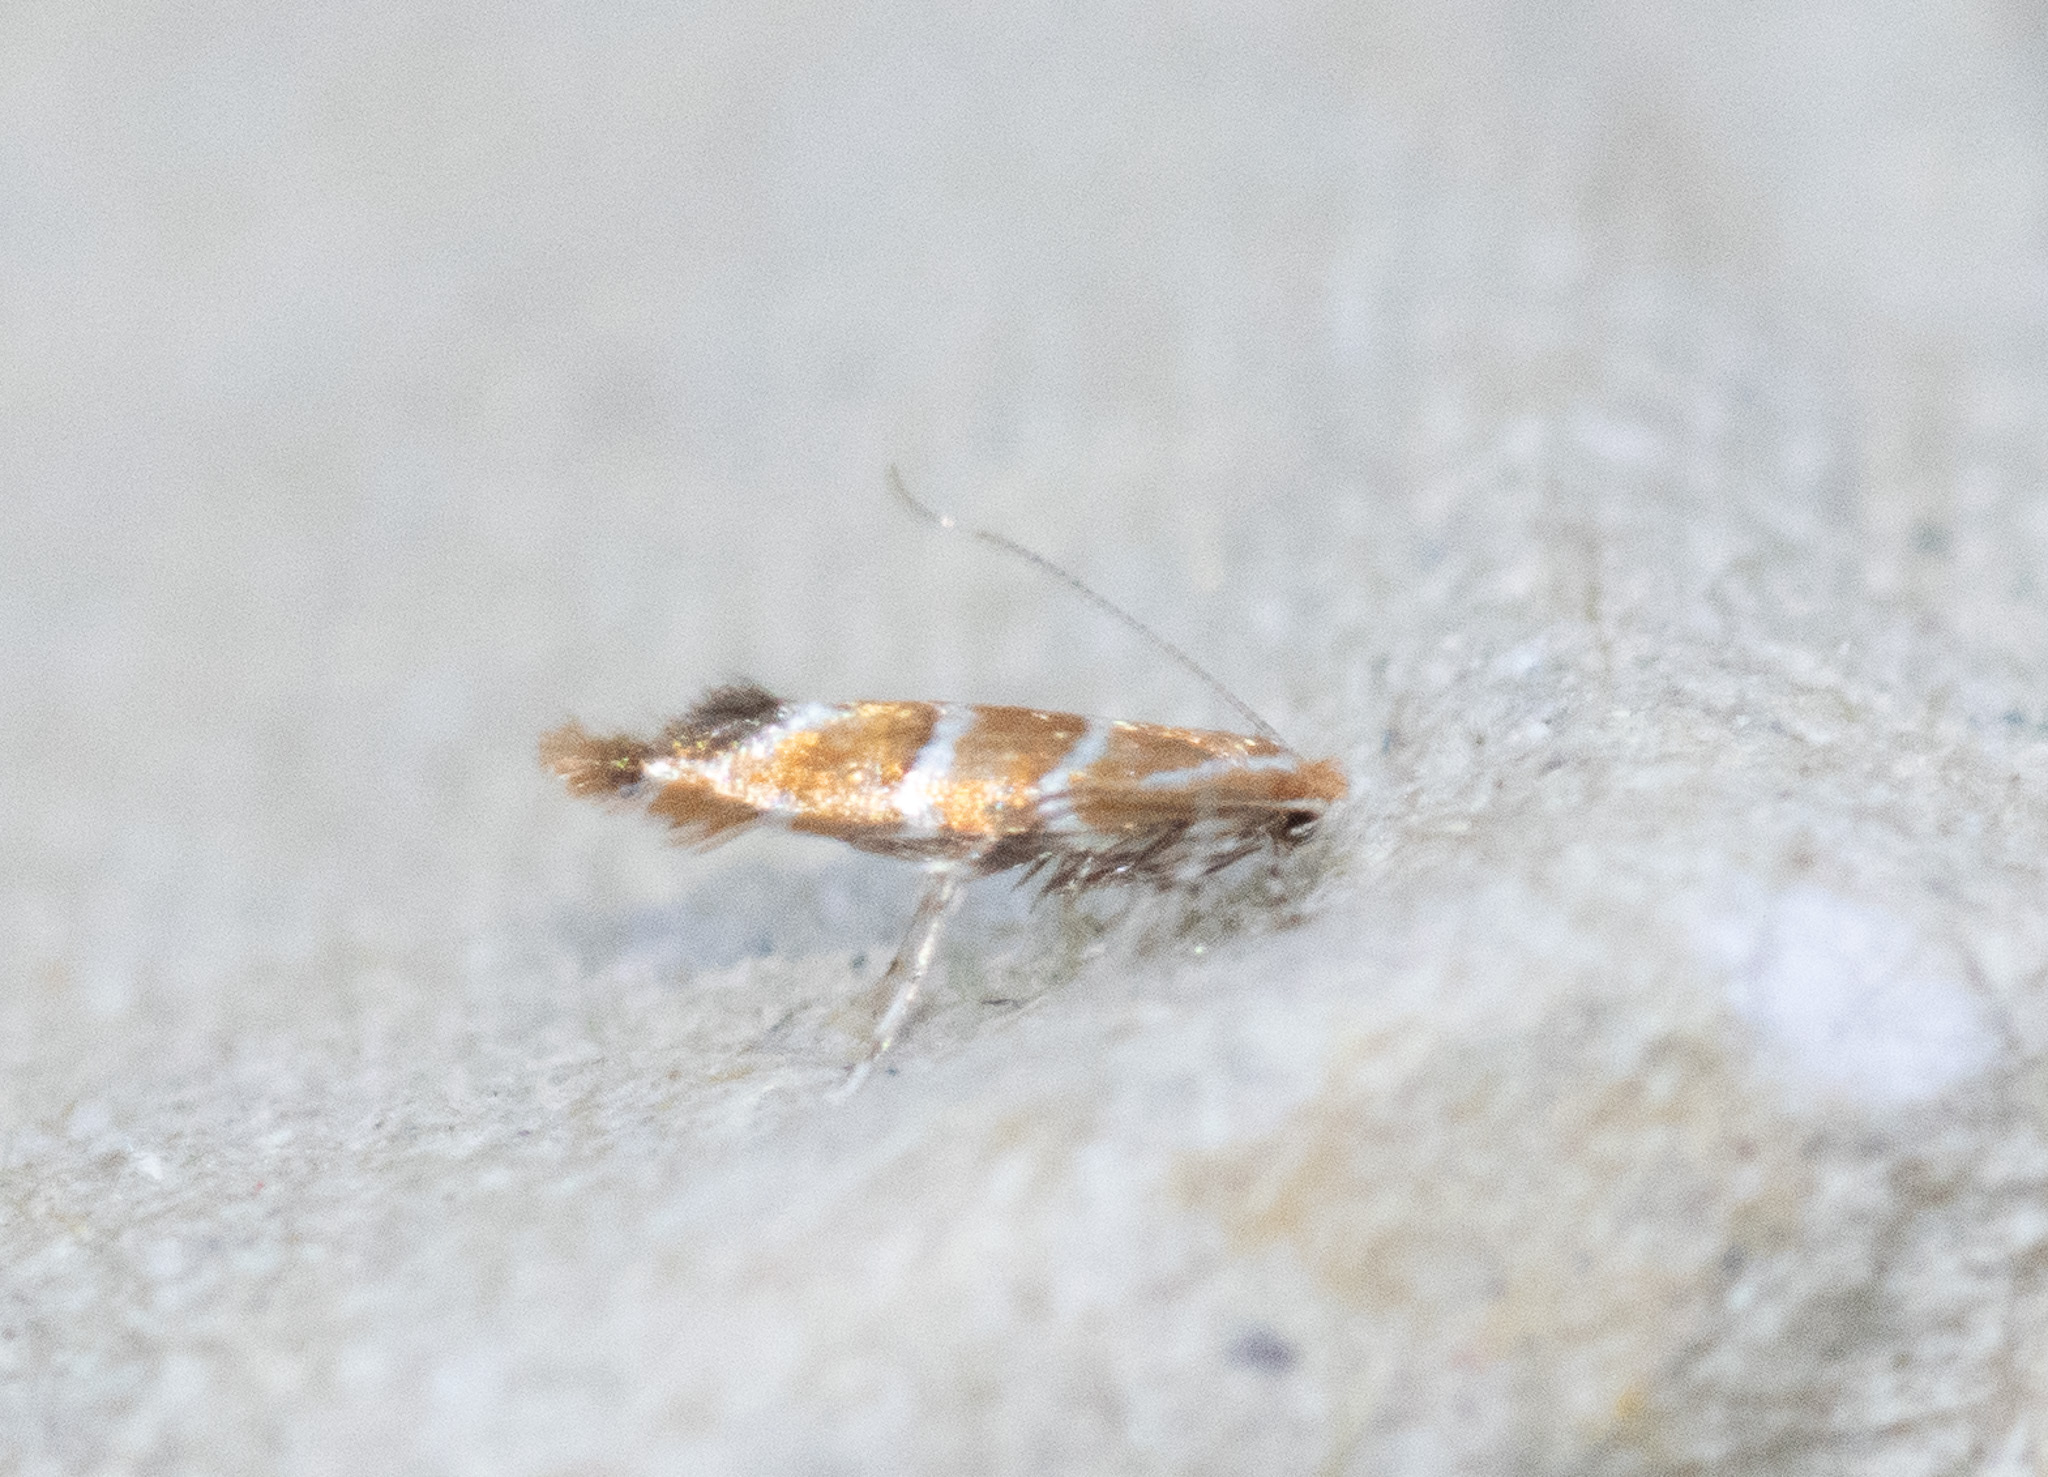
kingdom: Animalia
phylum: Arthropoda
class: Insecta
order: Lepidoptera
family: Gracillariidae
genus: Cameraria
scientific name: Cameraria ohridella
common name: Horse-chestnut leaf-miner
